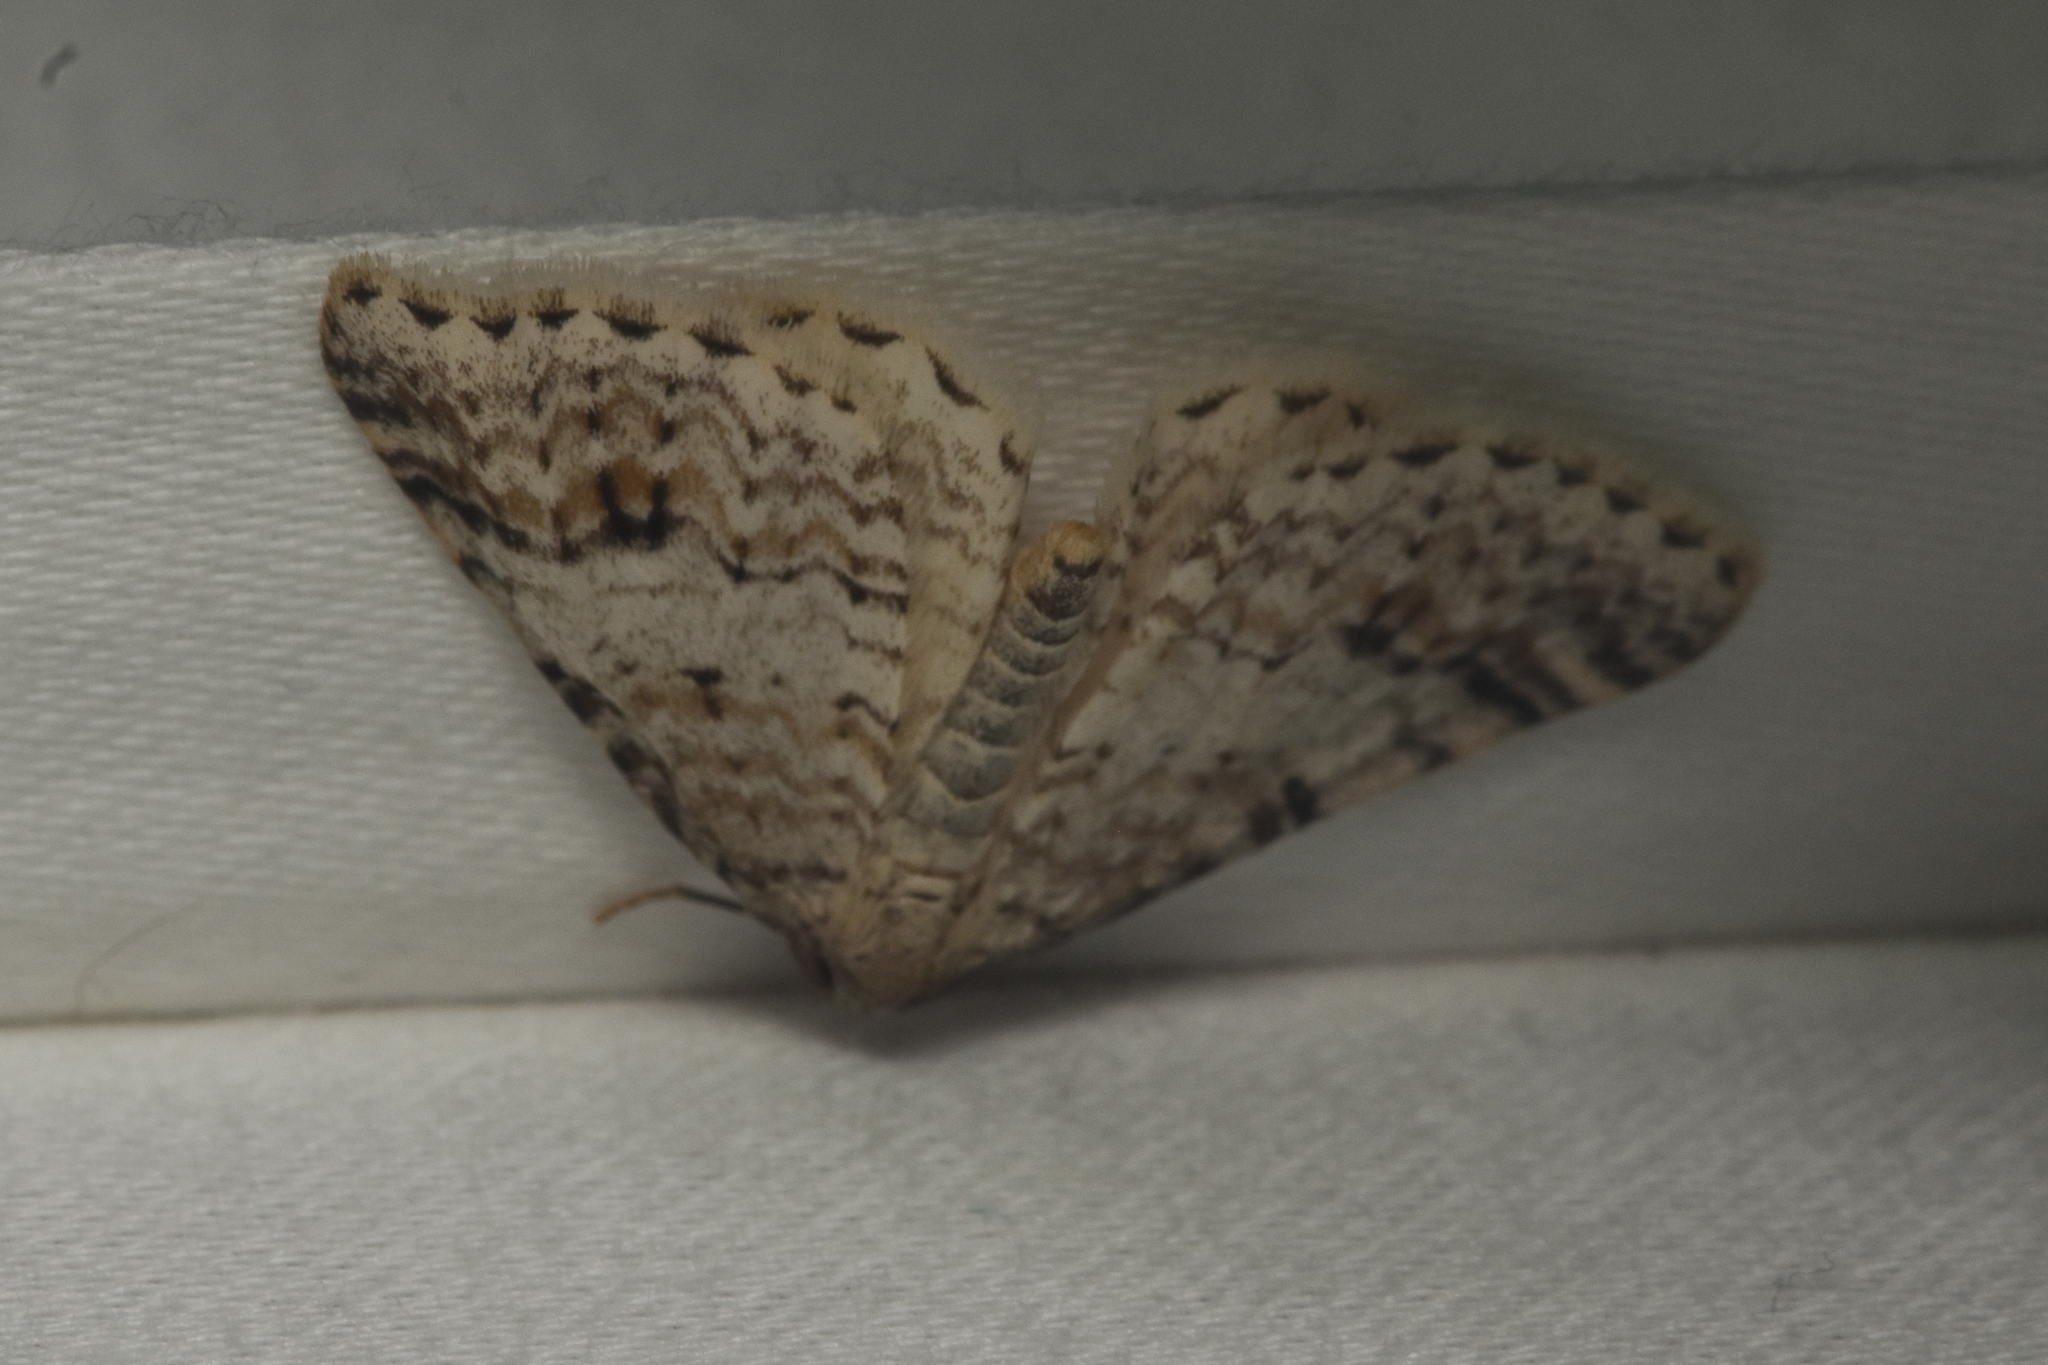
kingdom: Animalia
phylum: Arthropoda
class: Insecta
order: Lepidoptera
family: Geometridae
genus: Venusia
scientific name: Venusia cambrica
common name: Welsh wave
